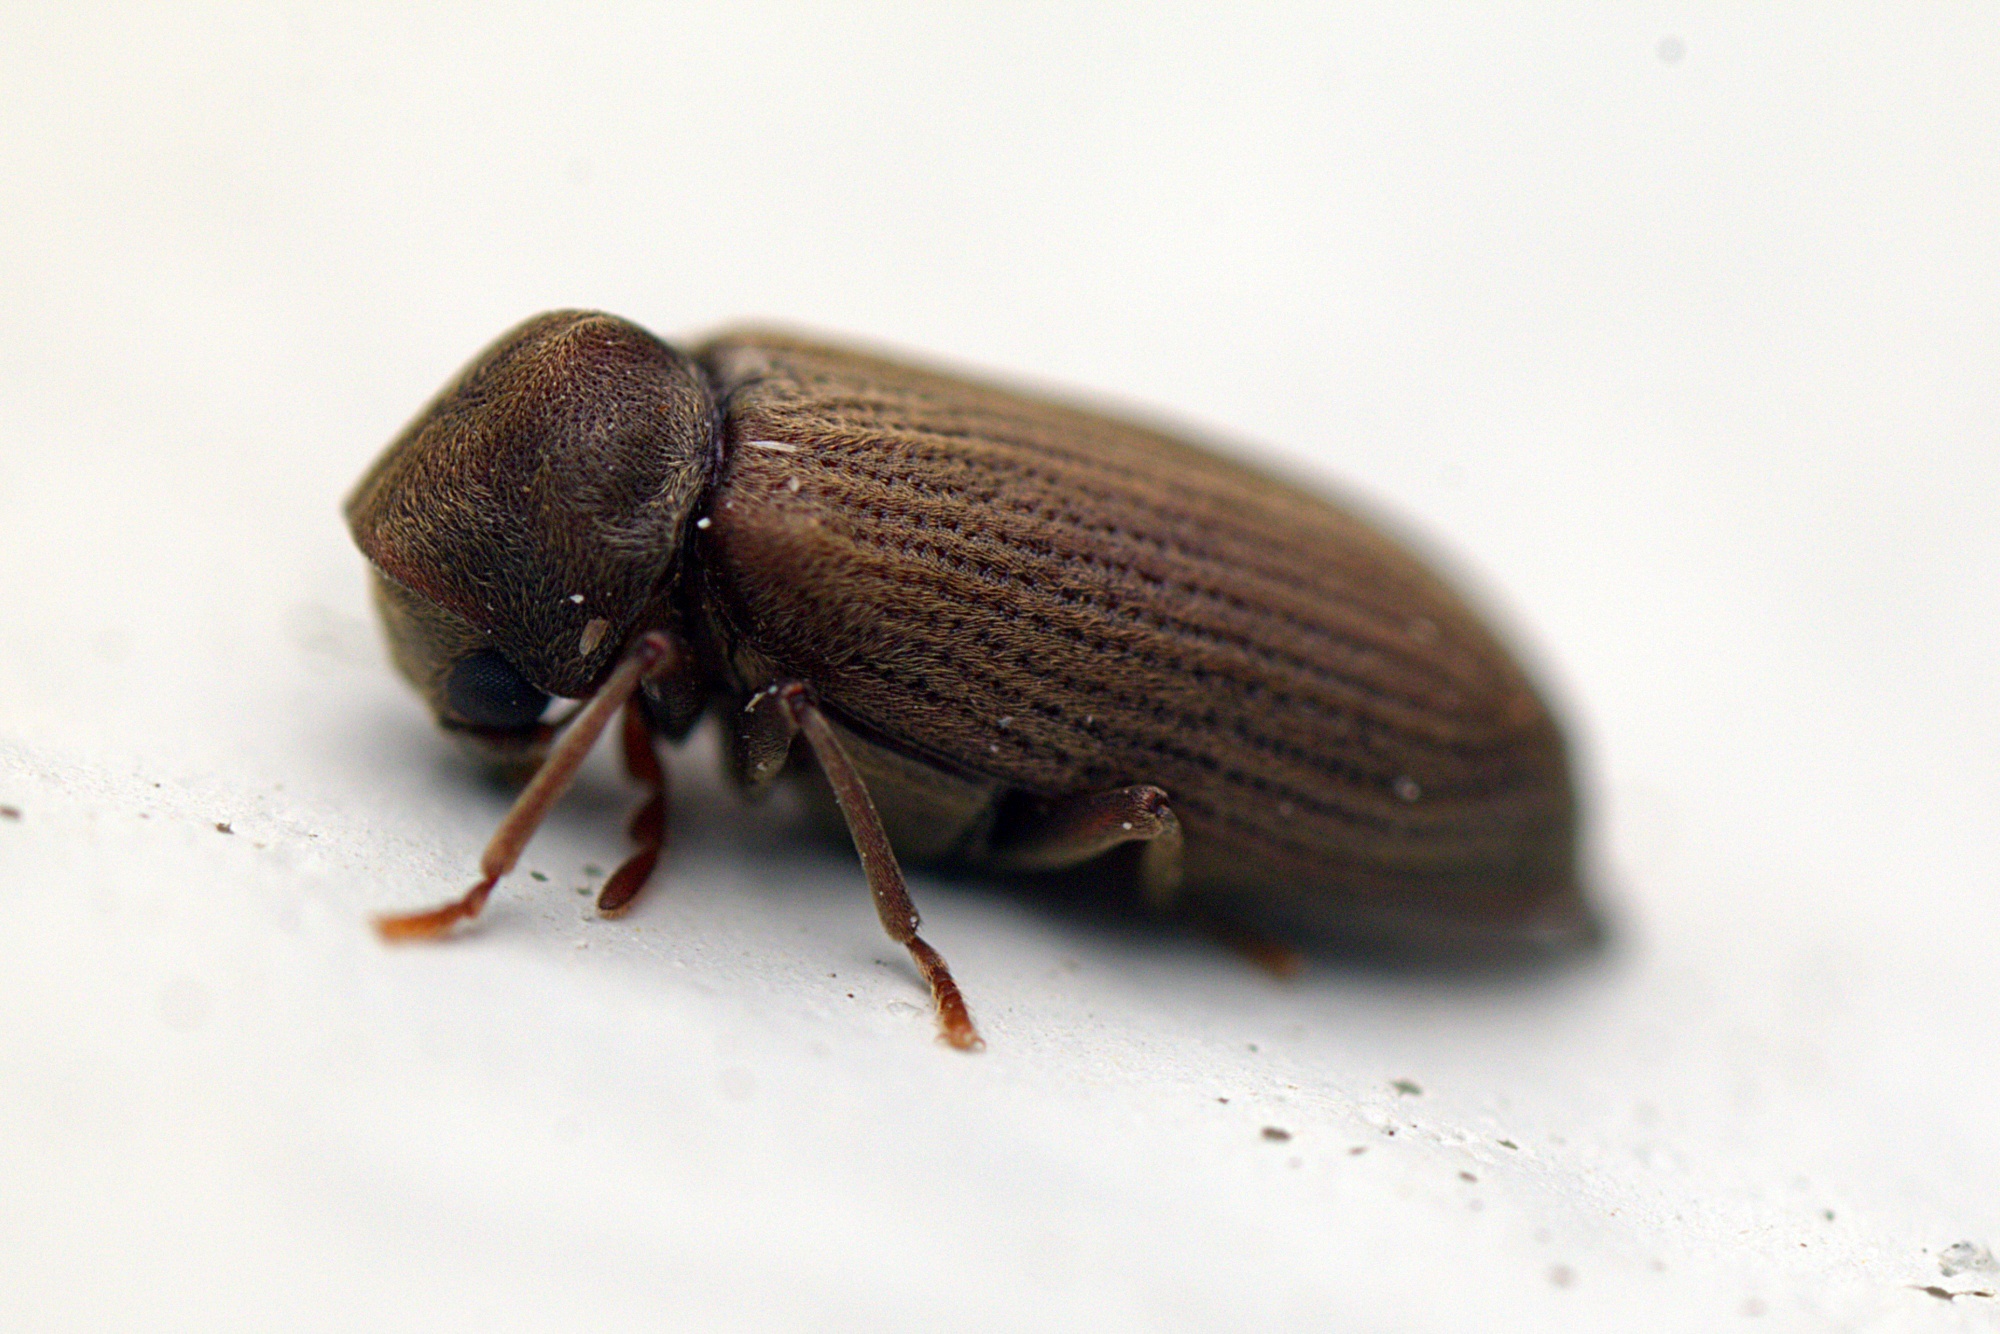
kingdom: Animalia
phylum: Arthropoda
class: Insecta
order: Coleoptera
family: Anobiidae
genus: Anobium
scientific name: Anobium punctatum
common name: Furniture beetle
